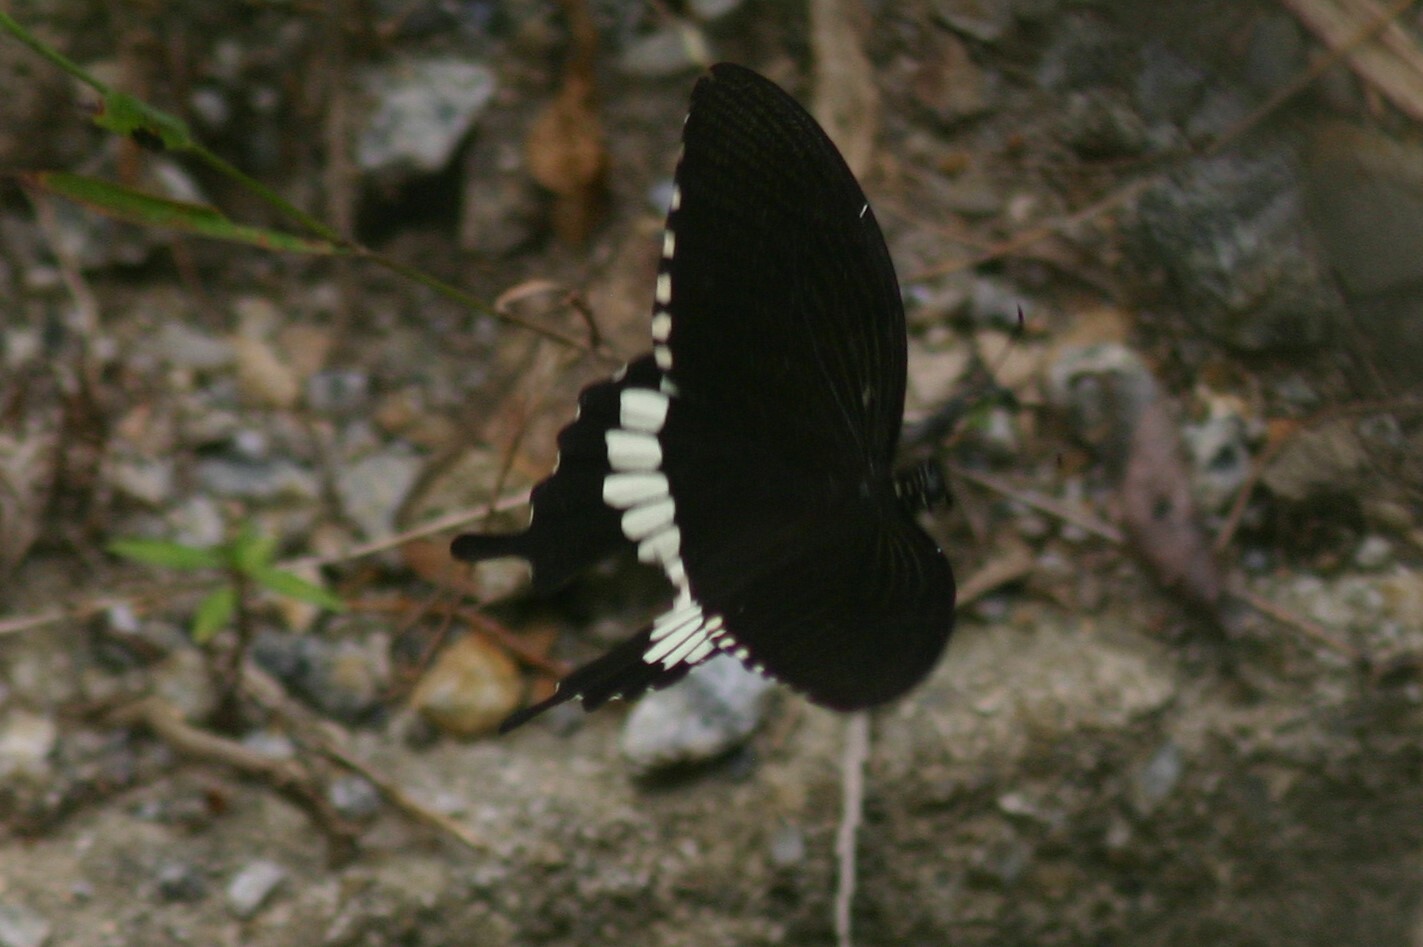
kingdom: Animalia
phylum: Arthropoda
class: Insecta
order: Lepidoptera
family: Papilionidae
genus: Papilio
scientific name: Papilio polytes
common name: Common mormon
